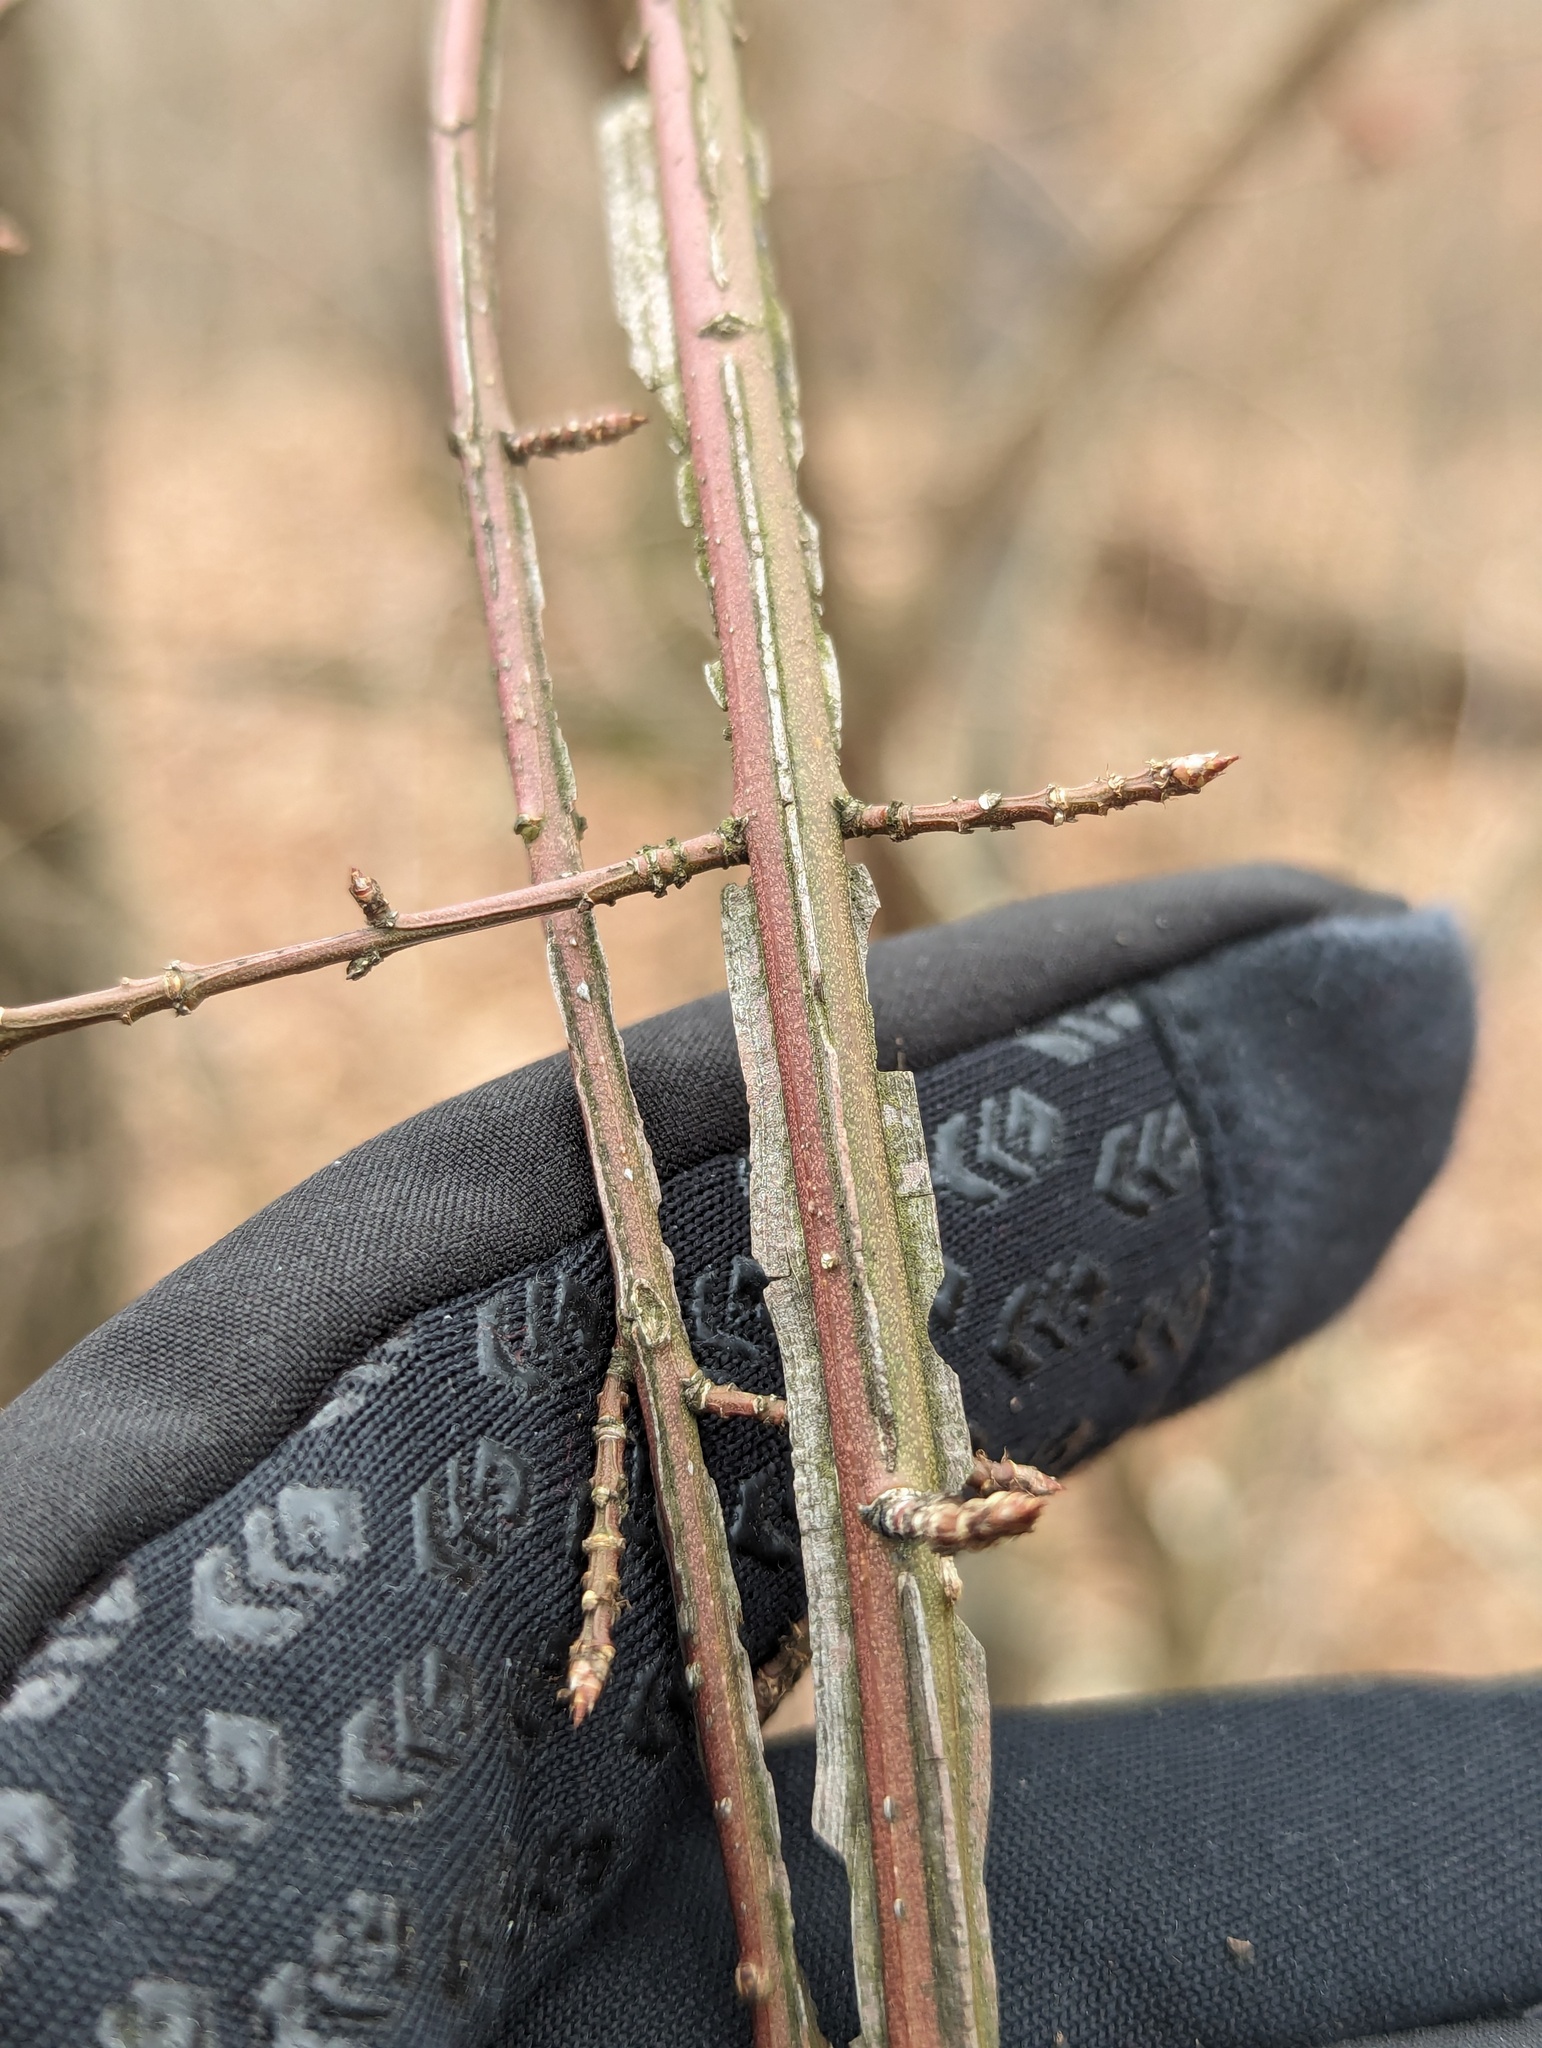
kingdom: Plantae
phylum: Tracheophyta
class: Magnoliopsida
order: Celastrales
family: Celastraceae
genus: Euonymus
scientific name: Euonymus alatus
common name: Winged euonymus
